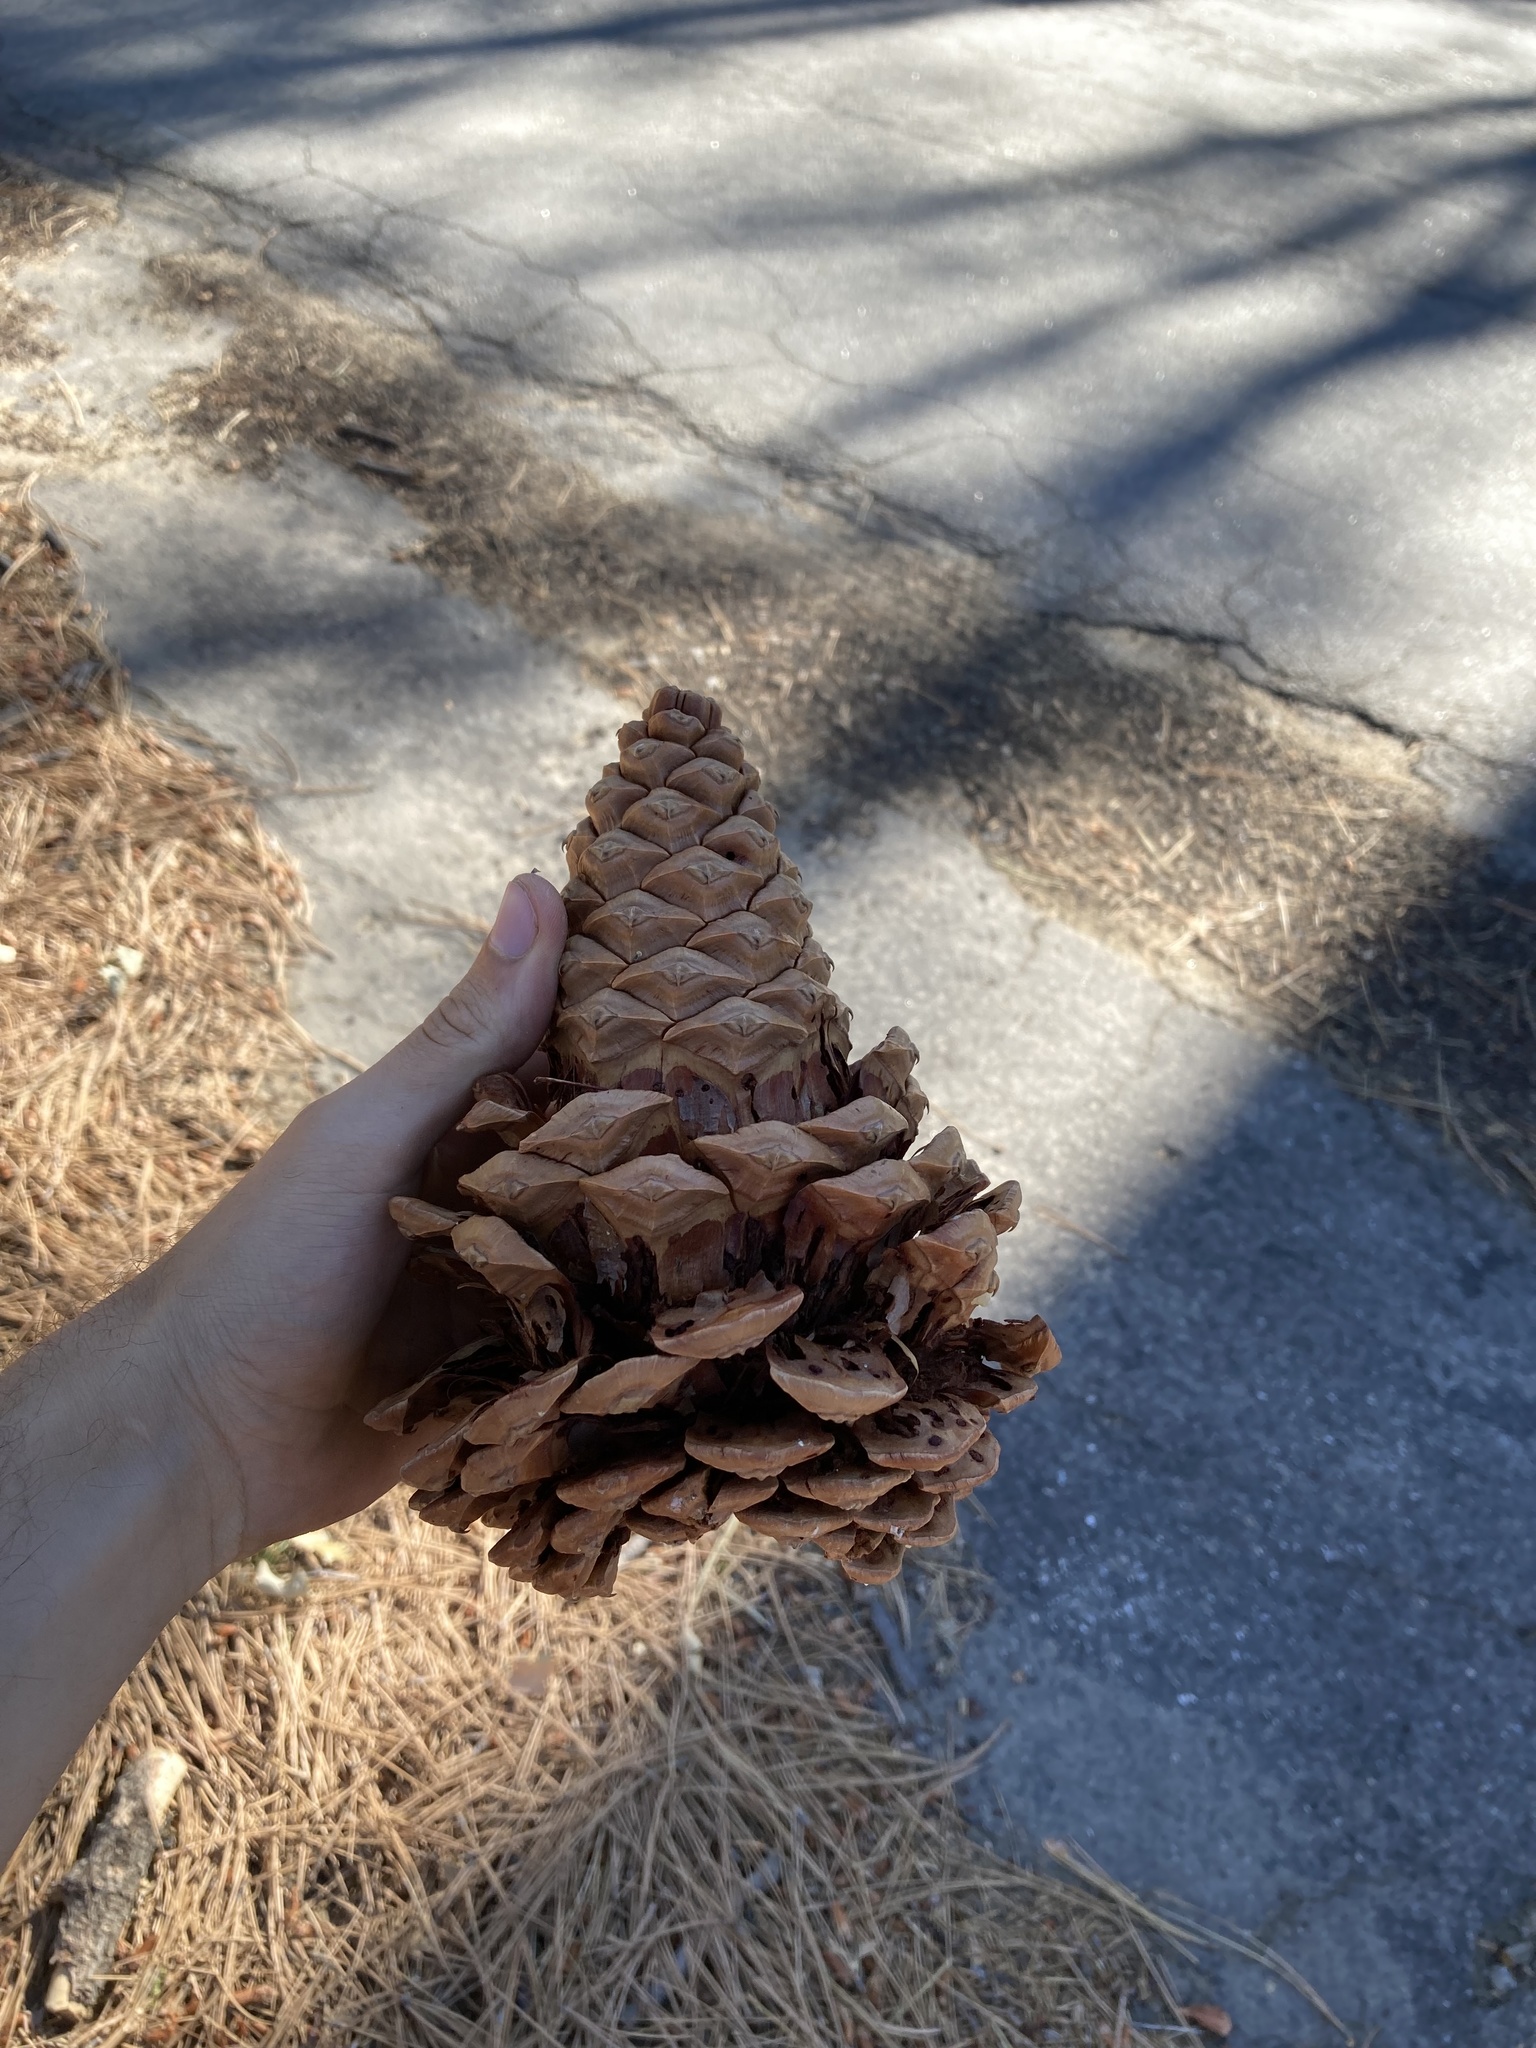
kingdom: Plantae
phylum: Tracheophyta
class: Pinopsida
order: Pinales
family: Pinaceae
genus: Pinus
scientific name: Pinus jeffreyi
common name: Jeffrey pine
